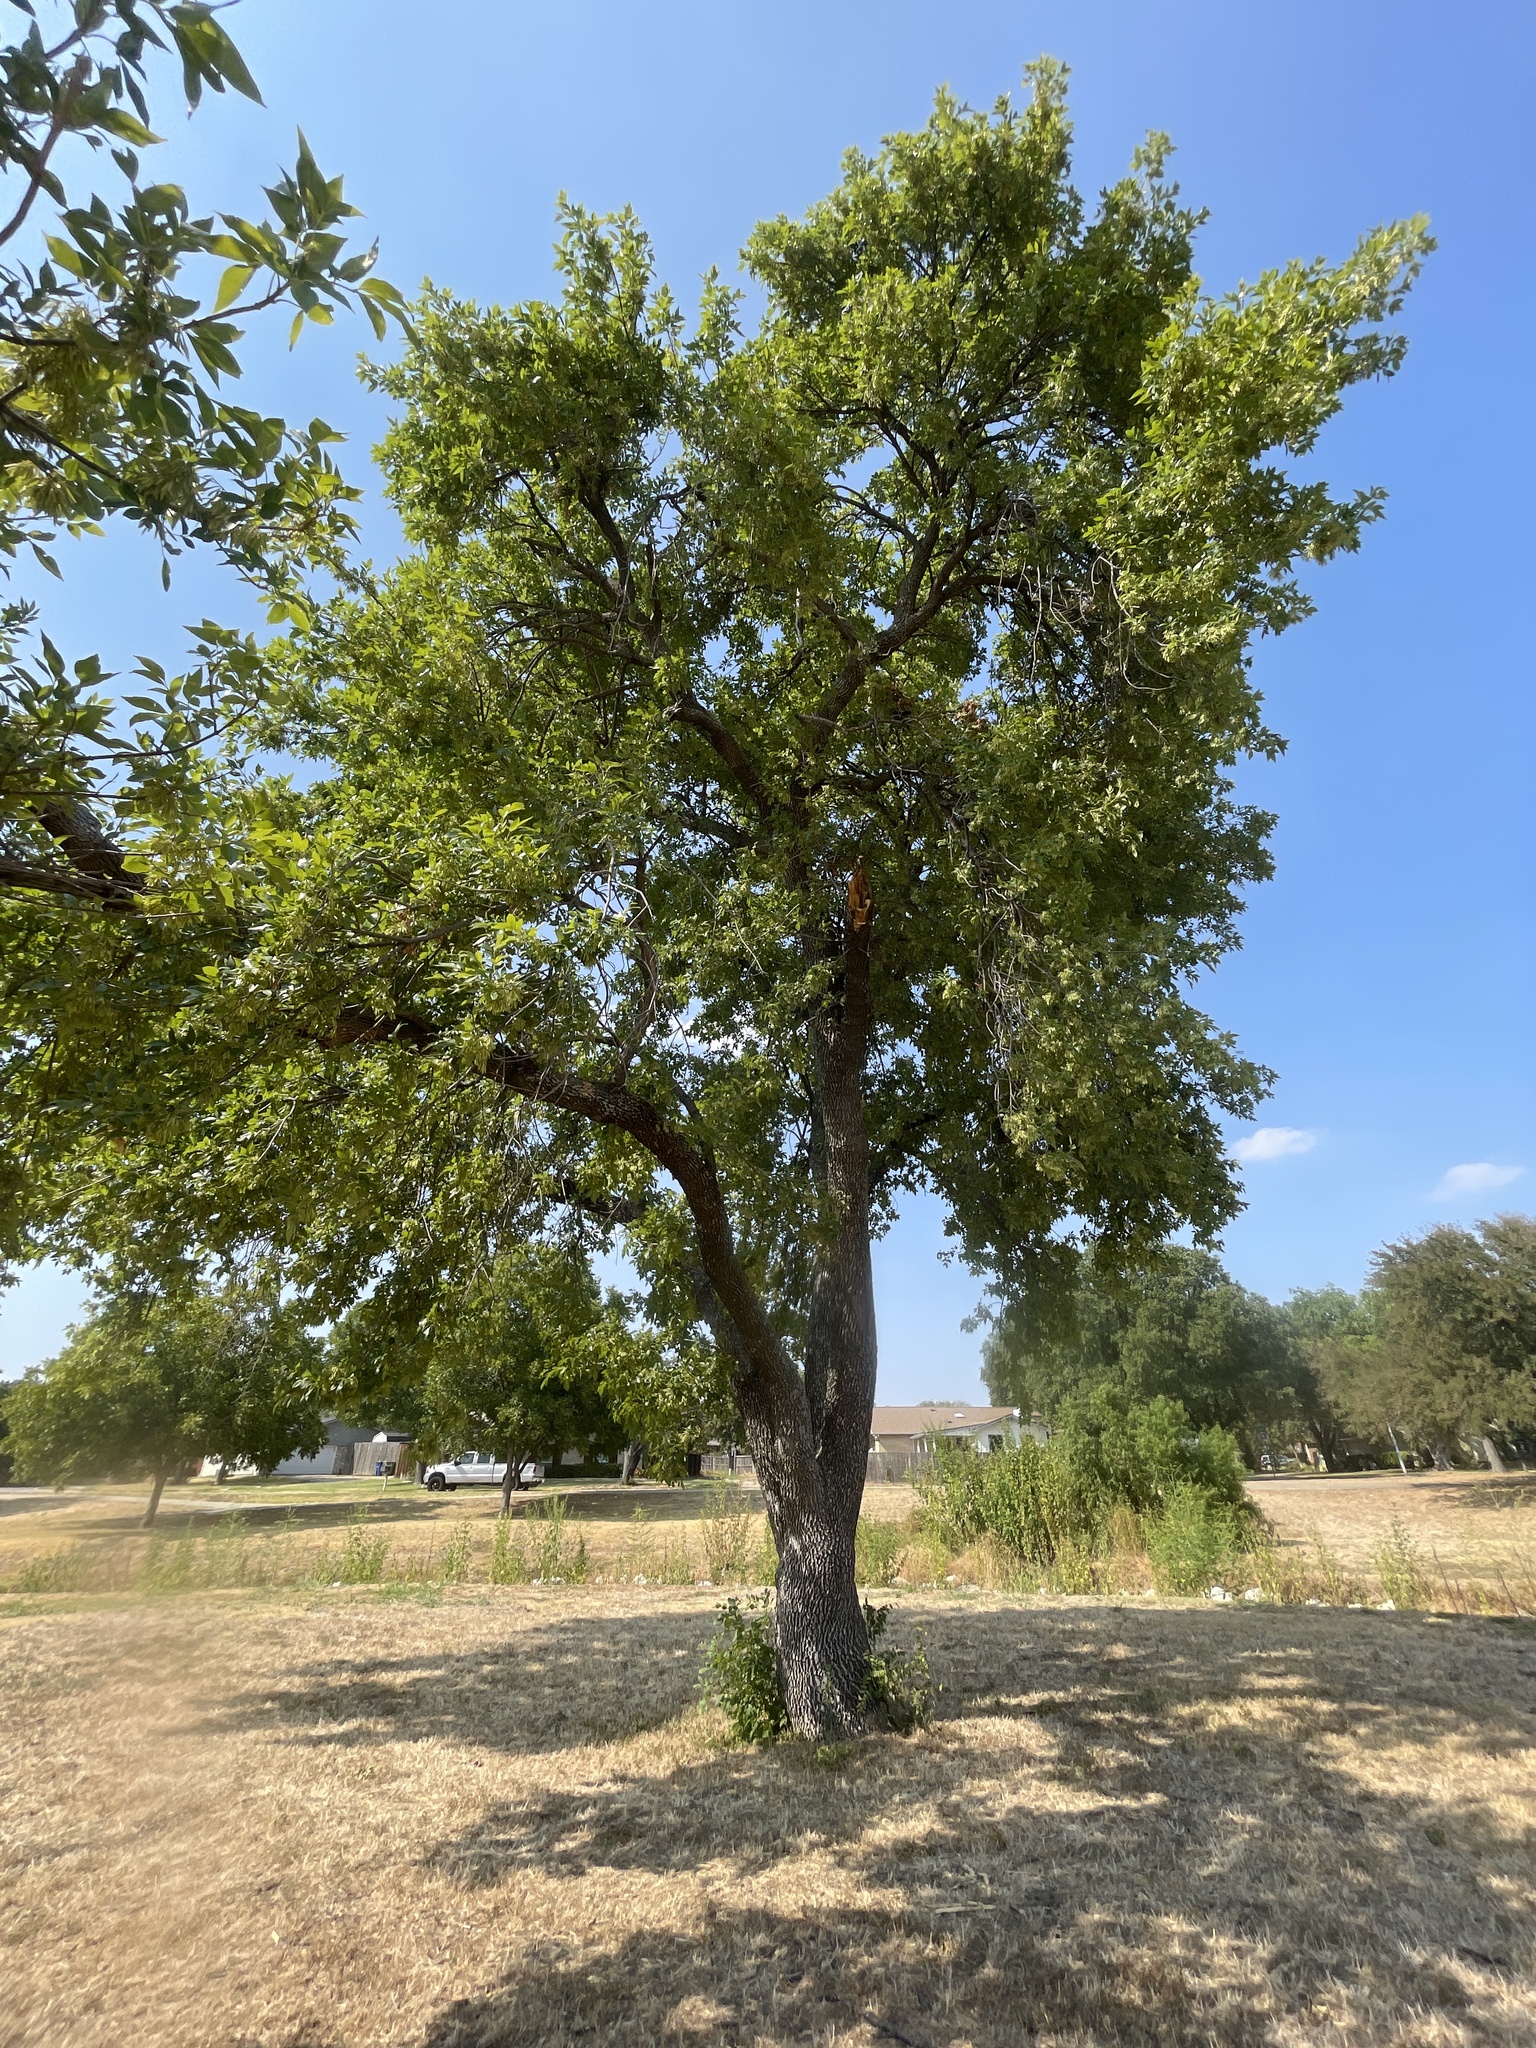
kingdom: Plantae
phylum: Tracheophyta
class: Magnoliopsida
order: Lamiales
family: Oleaceae
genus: Fraxinus
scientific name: Fraxinus pennsylvanica
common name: Green ash
